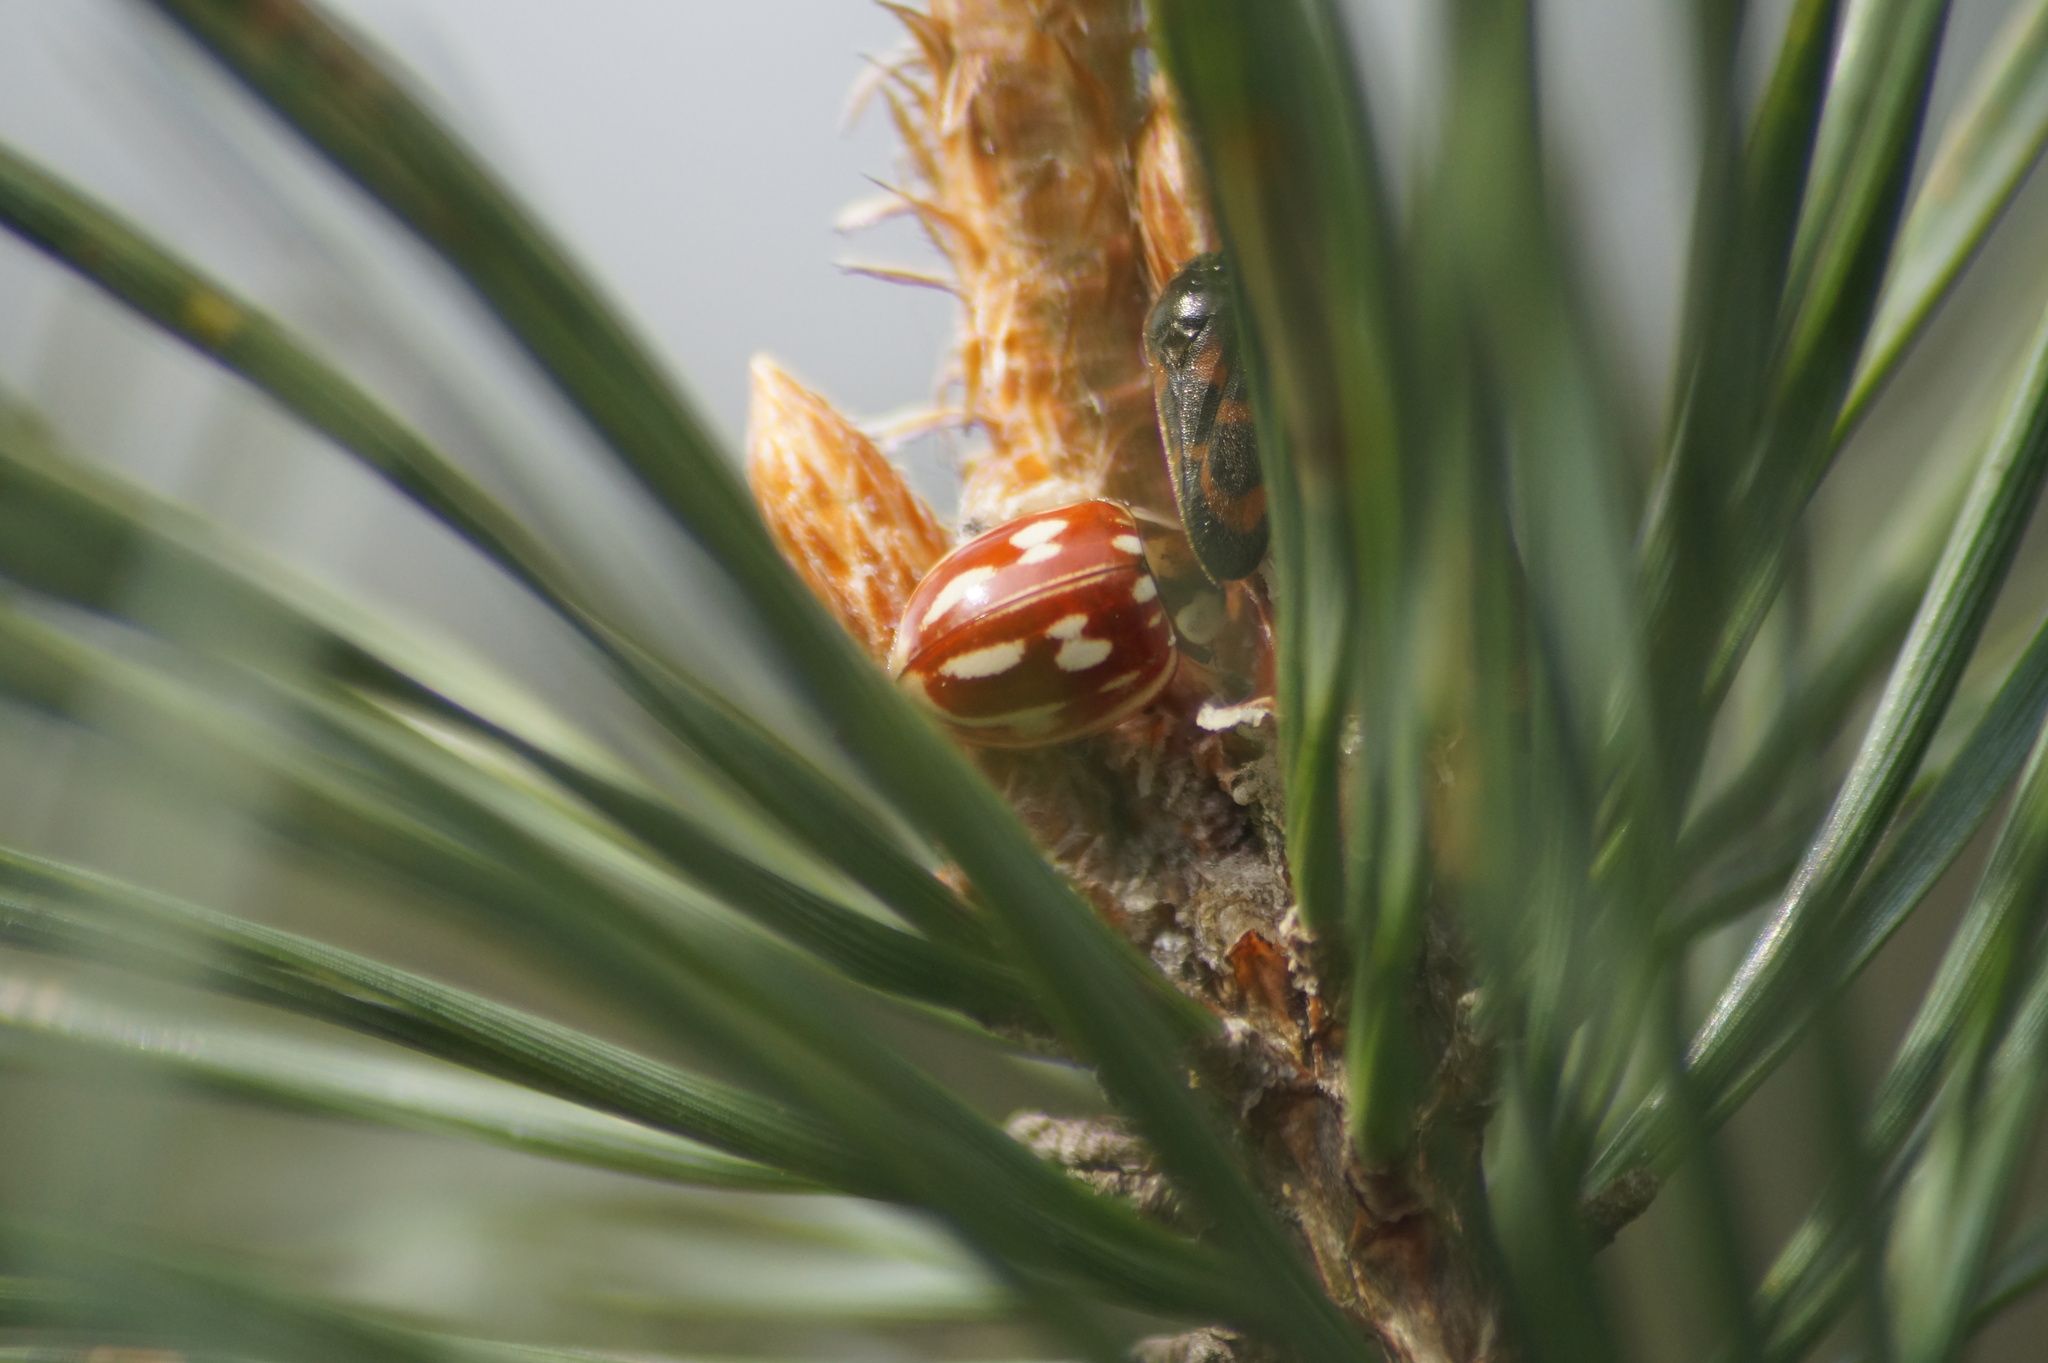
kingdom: Animalia
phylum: Arthropoda
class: Insecta
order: Coleoptera
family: Coccinellidae
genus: Myzia
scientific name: Myzia oblongoguttata
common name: Striped ladybird
